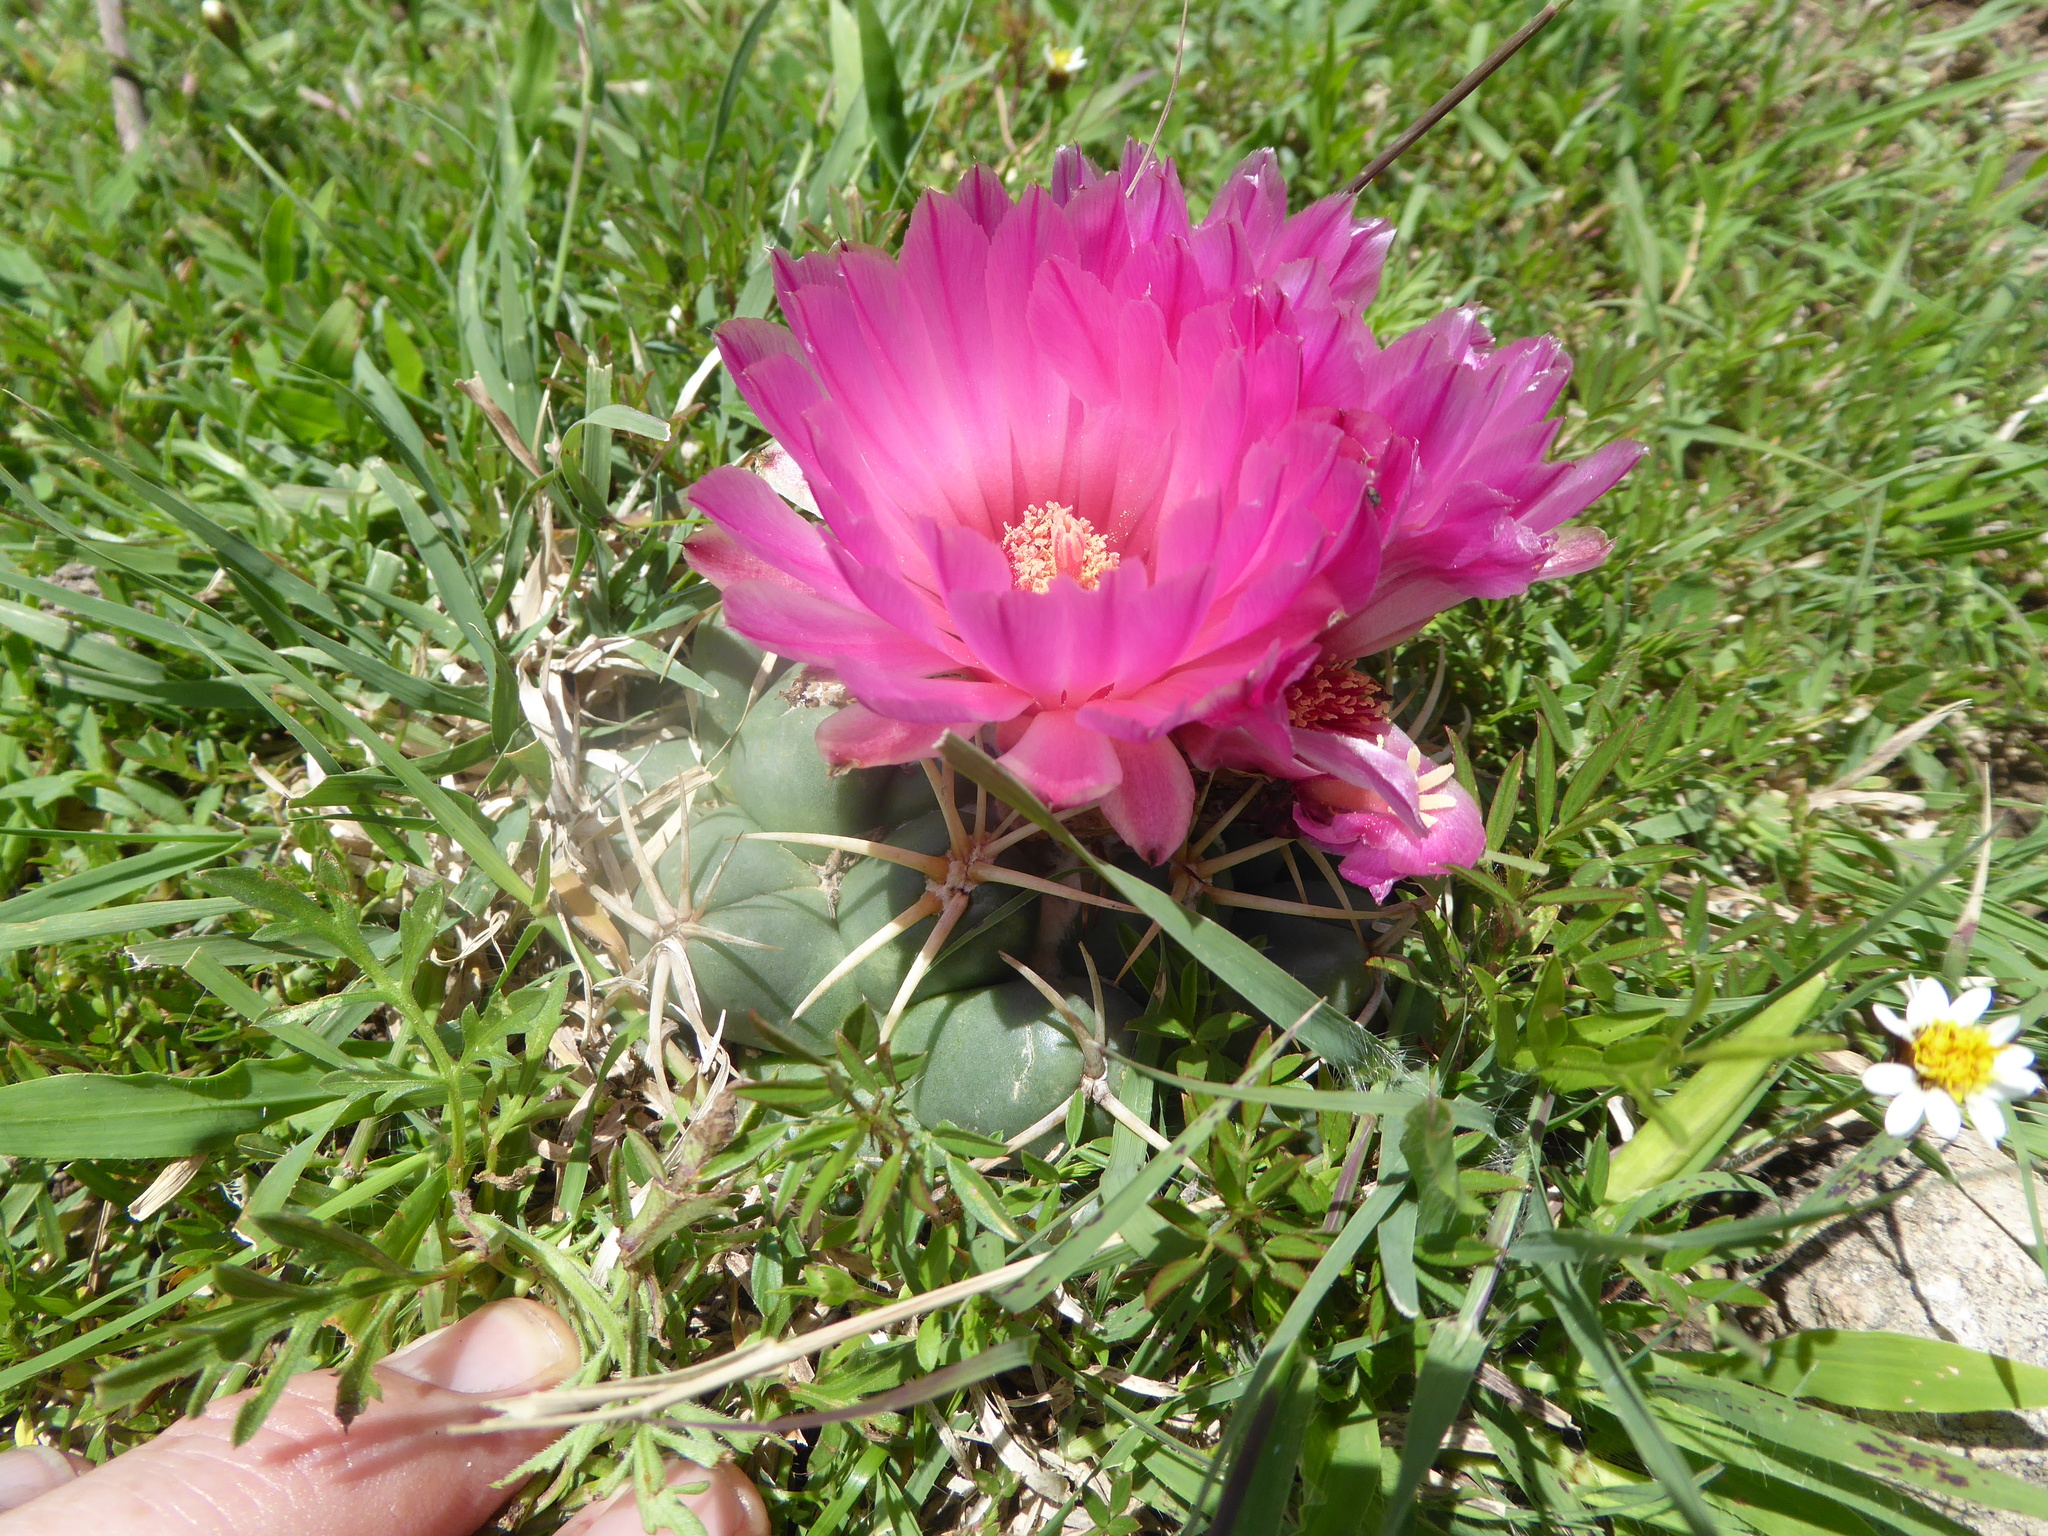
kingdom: Plantae
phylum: Tracheophyta
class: Magnoliopsida
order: Caryophyllales
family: Cactaceae
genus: Coryphantha
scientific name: Coryphantha elephantidens
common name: Elephant's tooth
